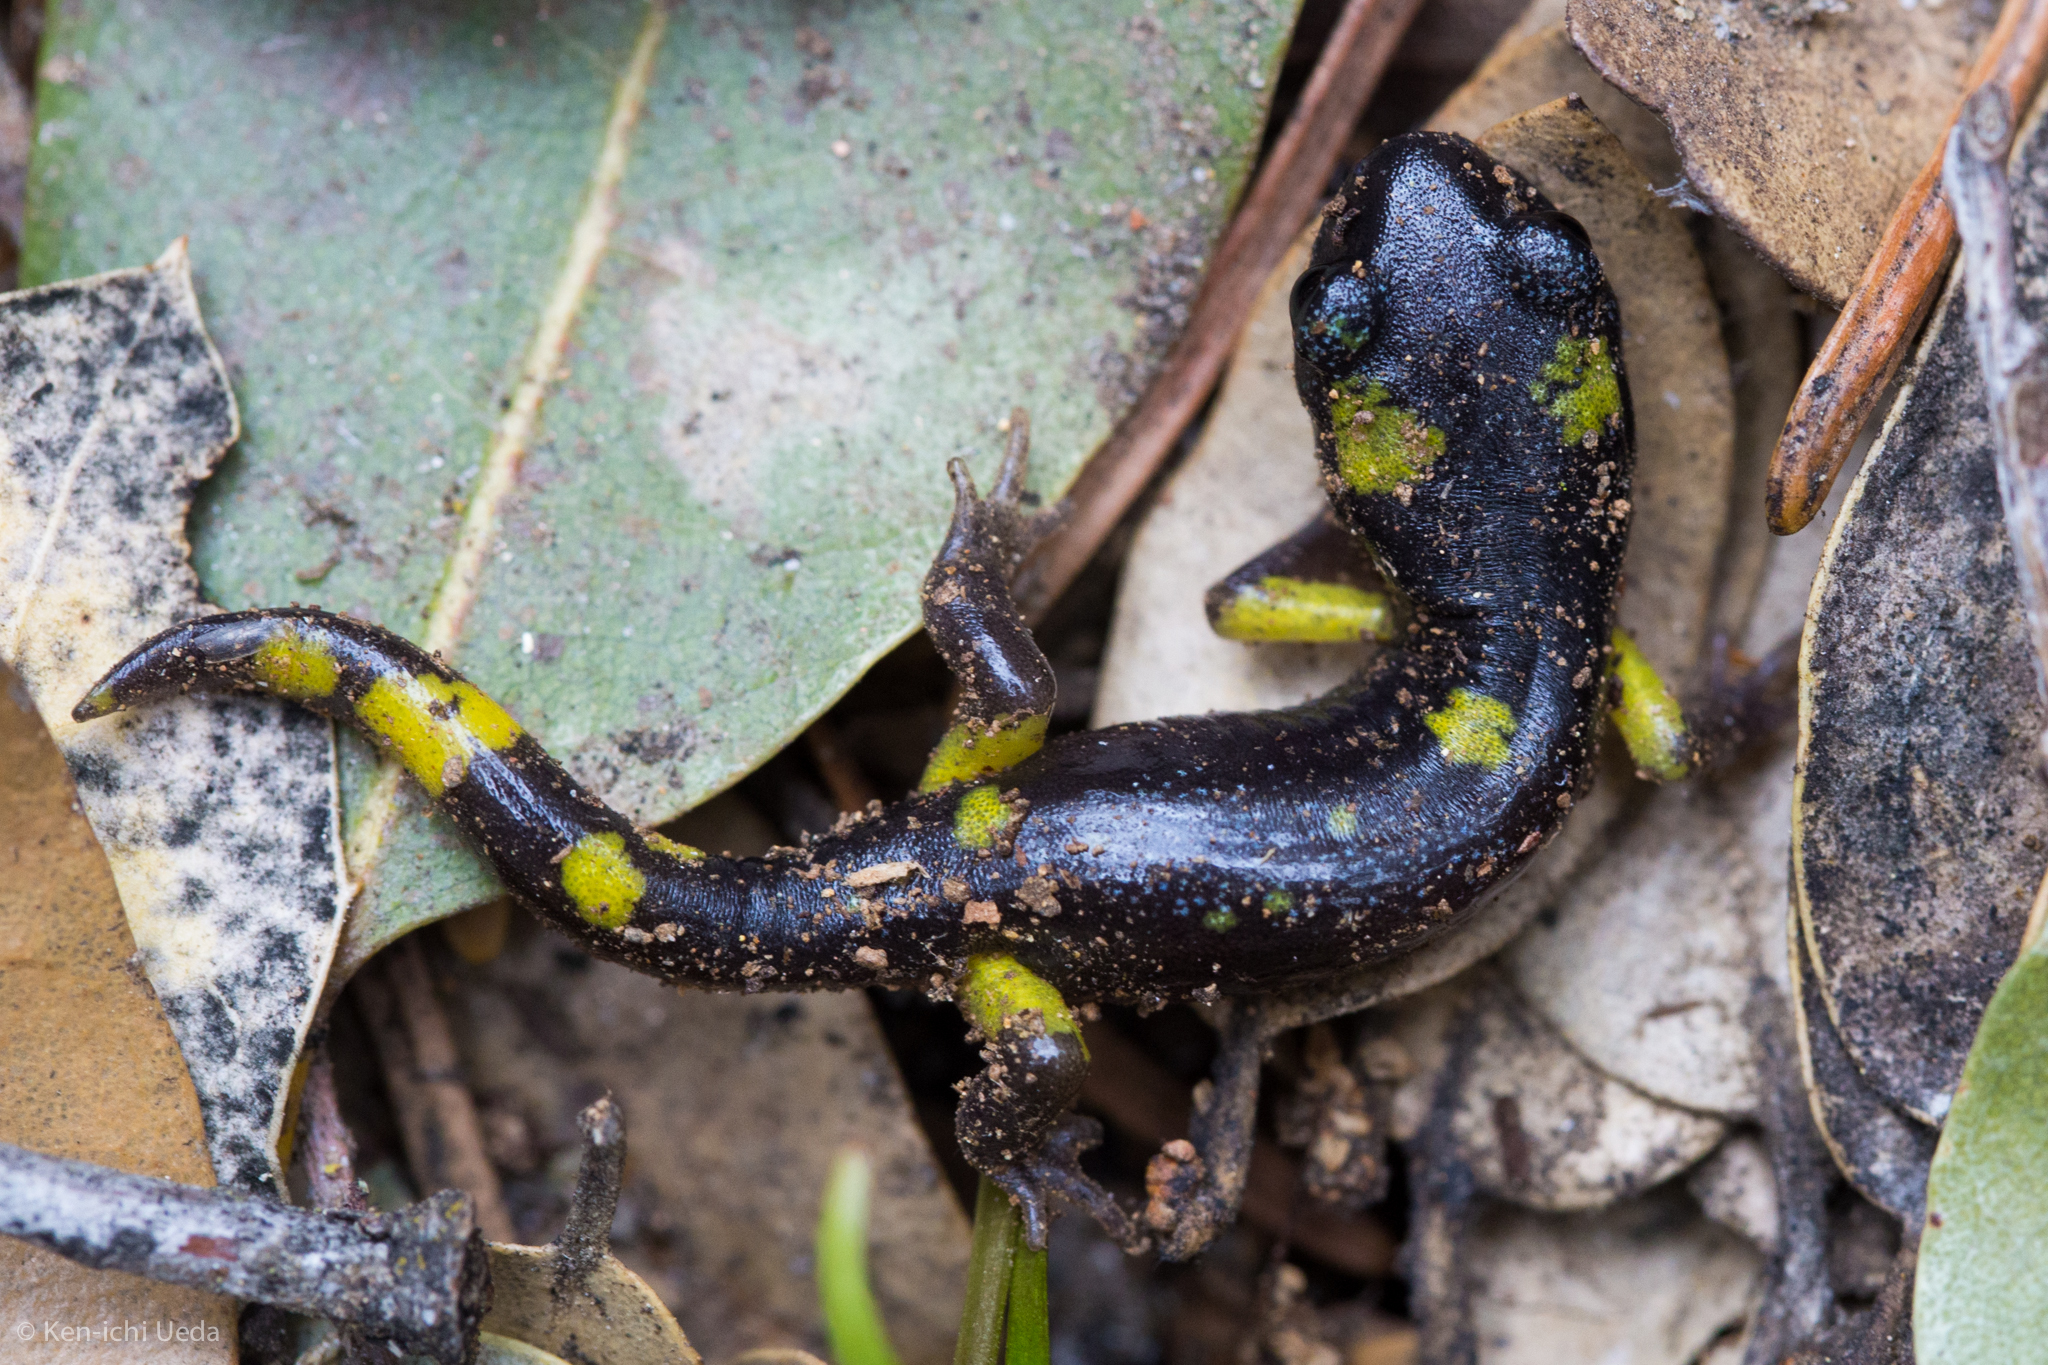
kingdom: Animalia
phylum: Chordata
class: Amphibia
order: Caudata
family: Plethodontidae
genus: Ensatina
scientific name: Ensatina eschscholtzii
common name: Ensatina
